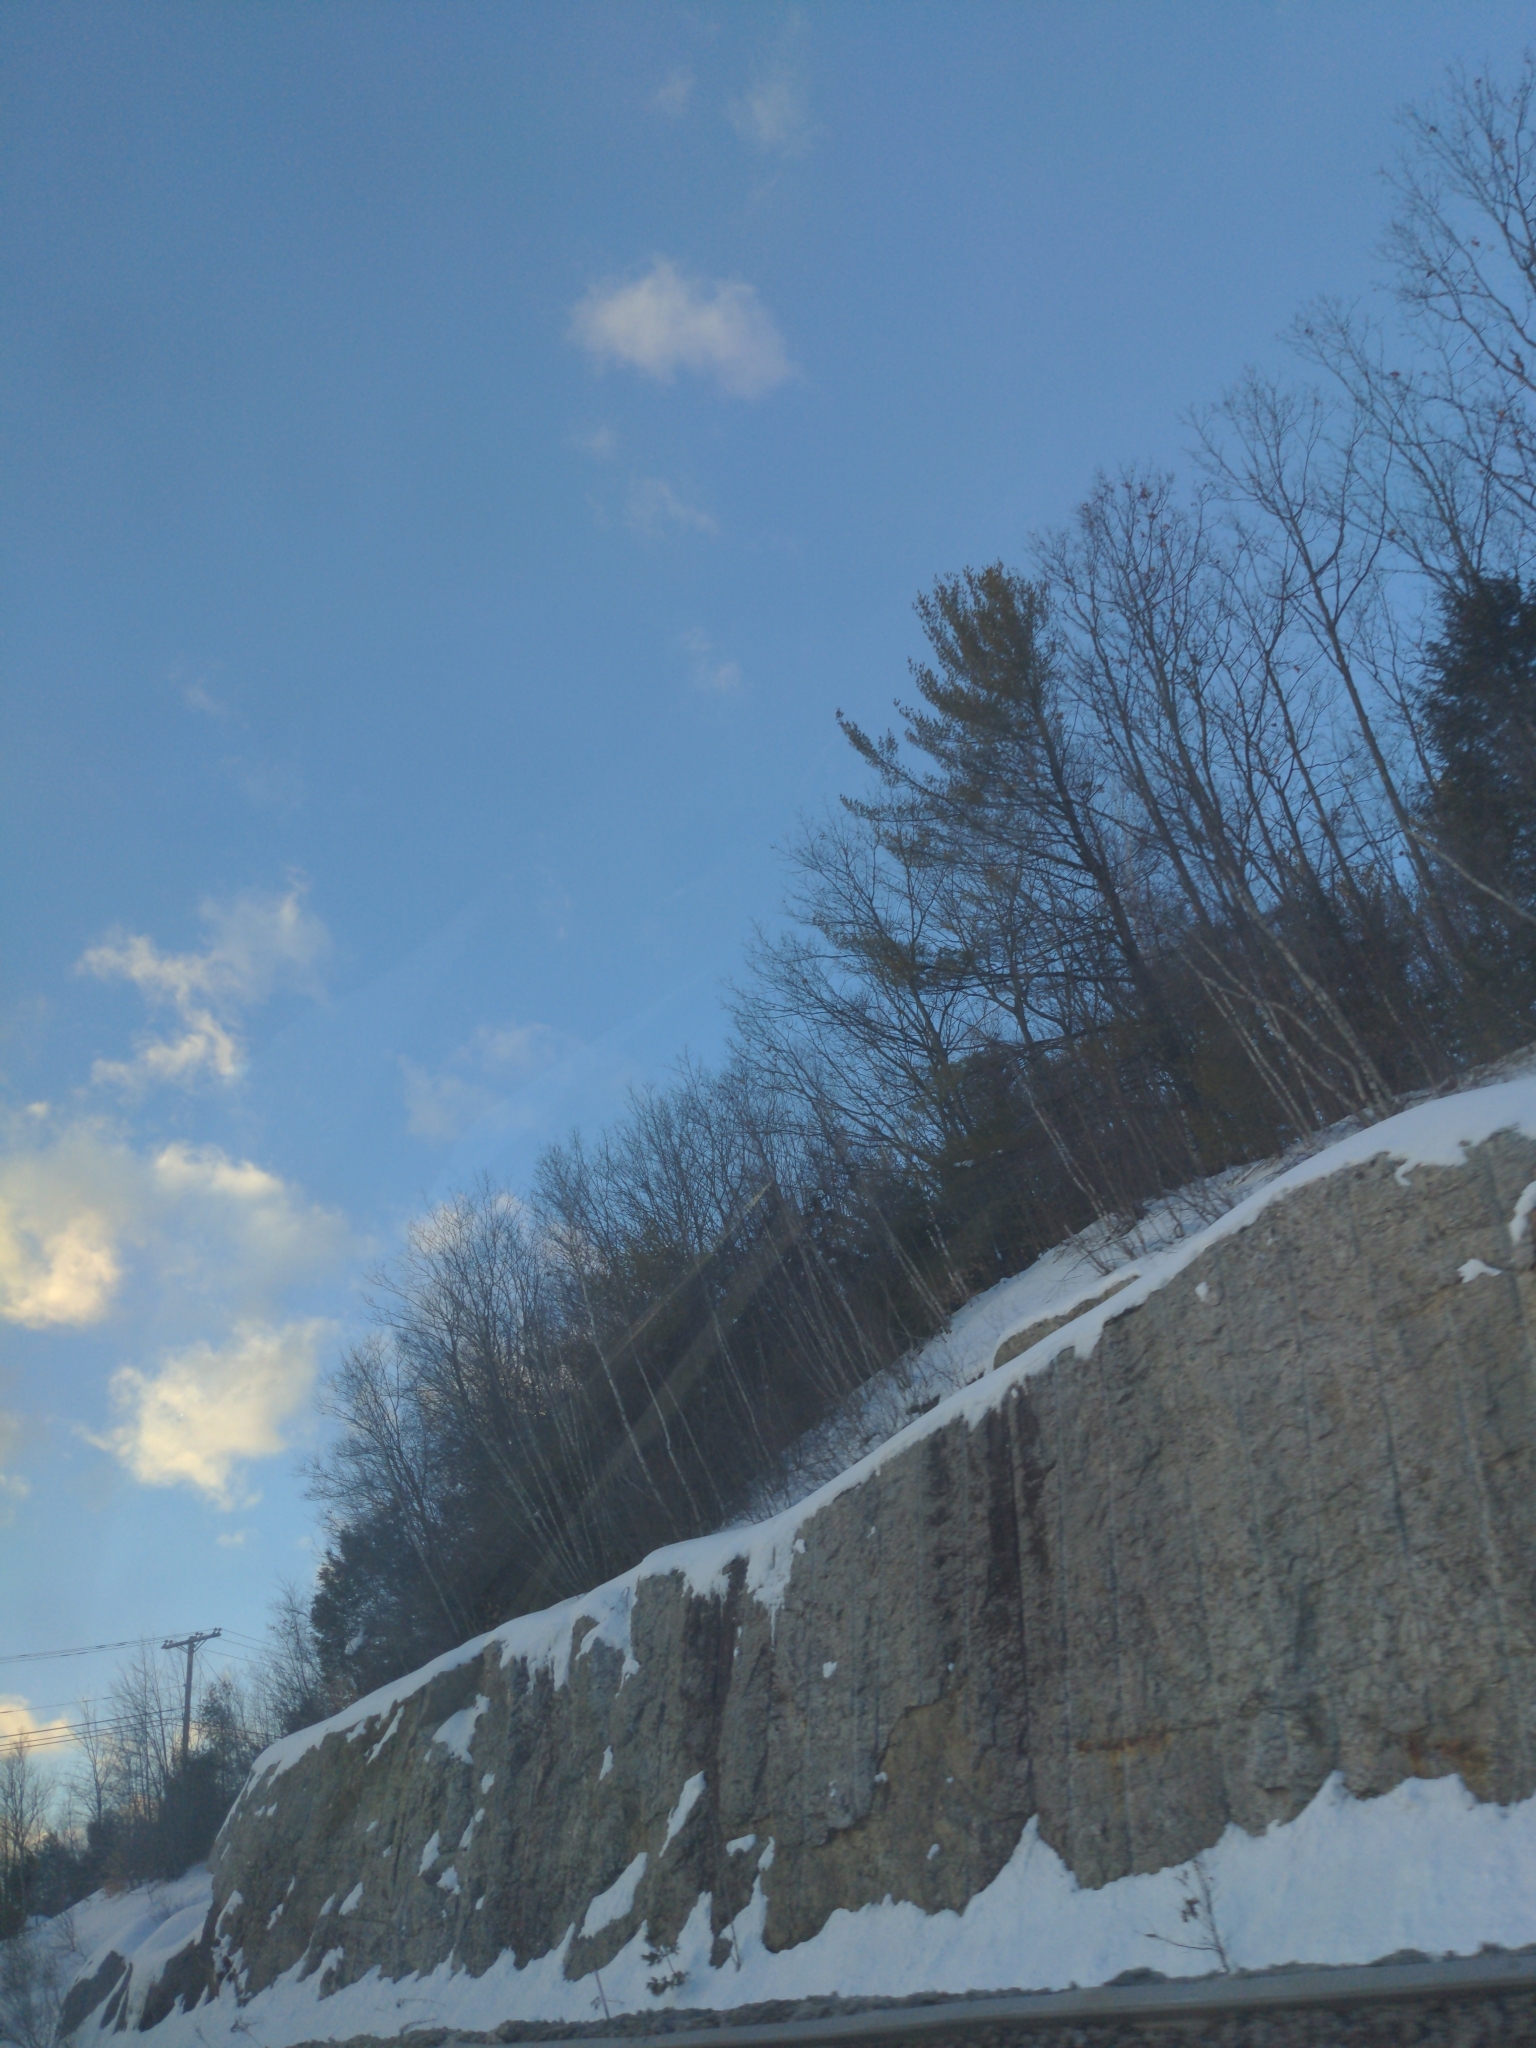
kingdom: Plantae
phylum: Tracheophyta
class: Pinopsida
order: Pinales
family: Pinaceae
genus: Pinus
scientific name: Pinus strobus
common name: Weymouth pine
